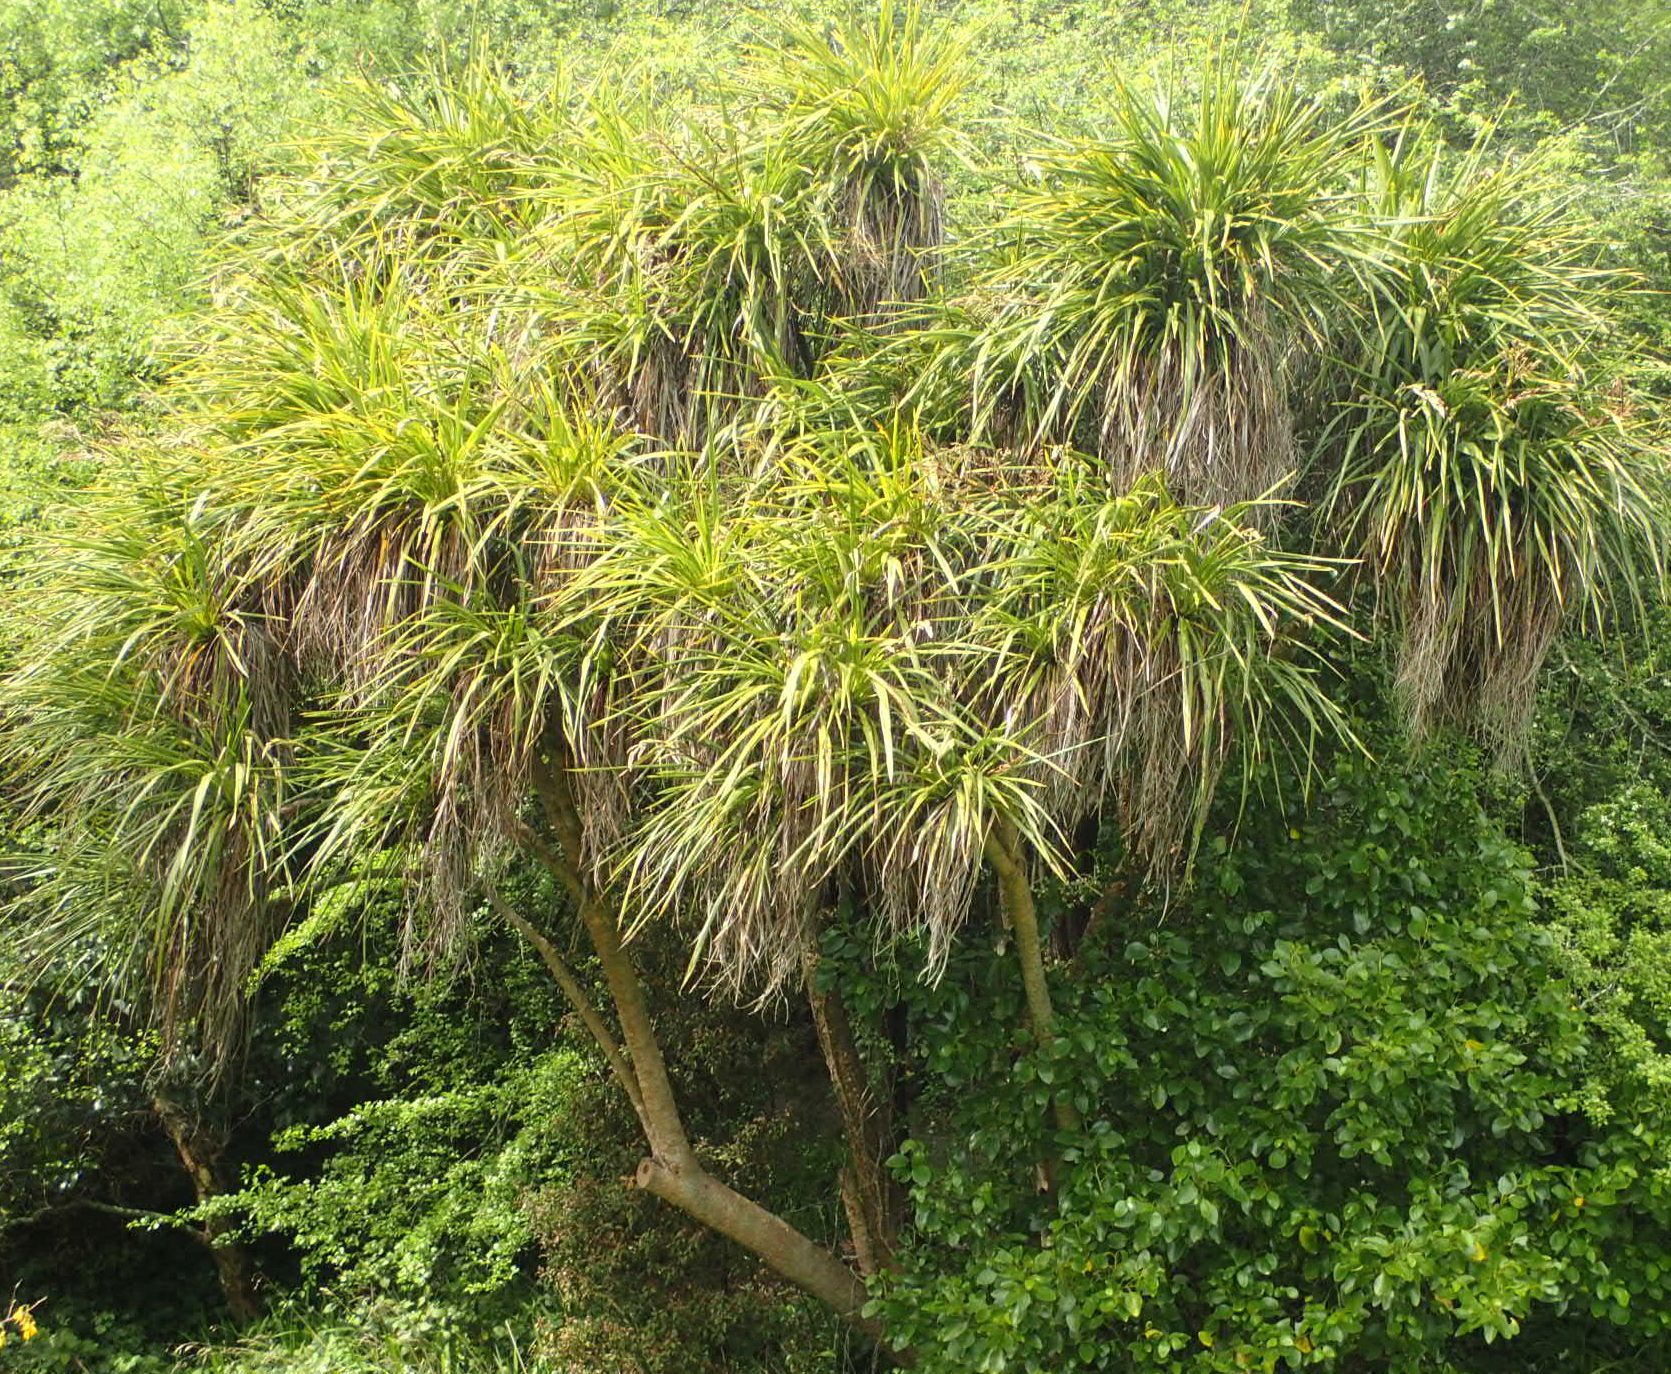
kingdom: Plantae
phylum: Tracheophyta
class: Liliopsida
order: Asparagales
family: Asparagaceae
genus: Cordyline
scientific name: Cordyline australis
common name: Cabbage-palm
